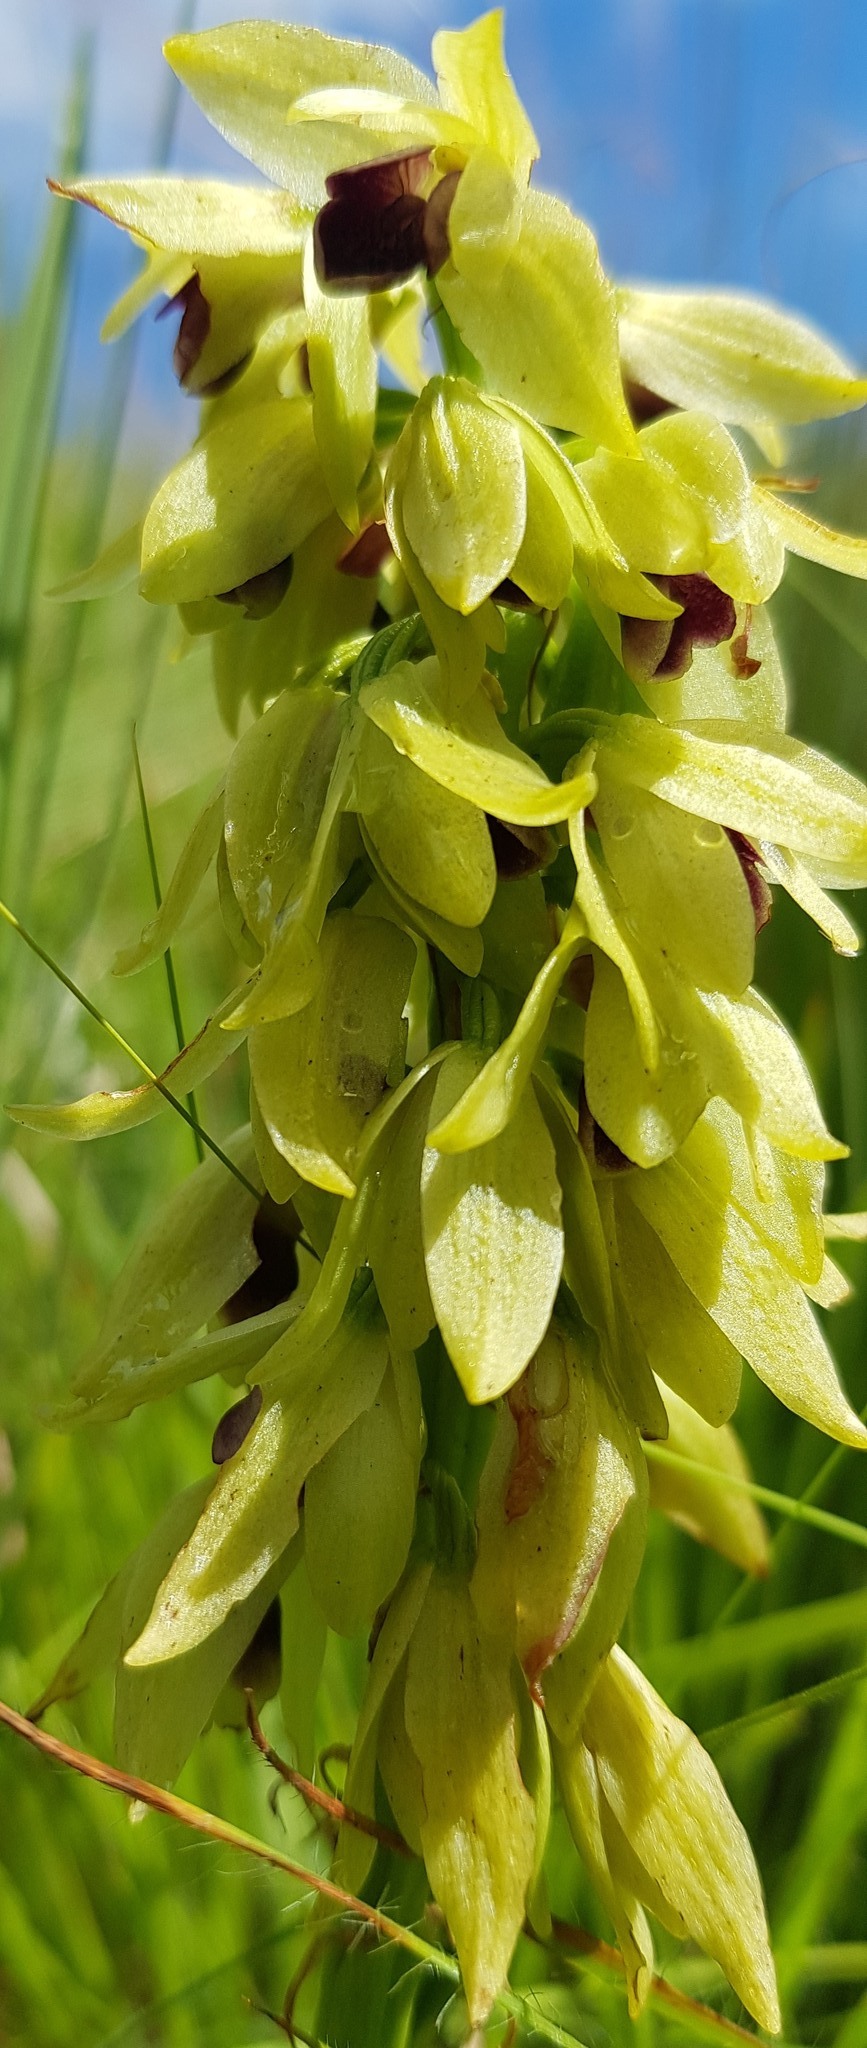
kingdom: Plantae
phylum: Tracheophyta
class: Liliopsida
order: Asparagales
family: Orchidaceae
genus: Eulophia
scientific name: Eulophia foliosa
